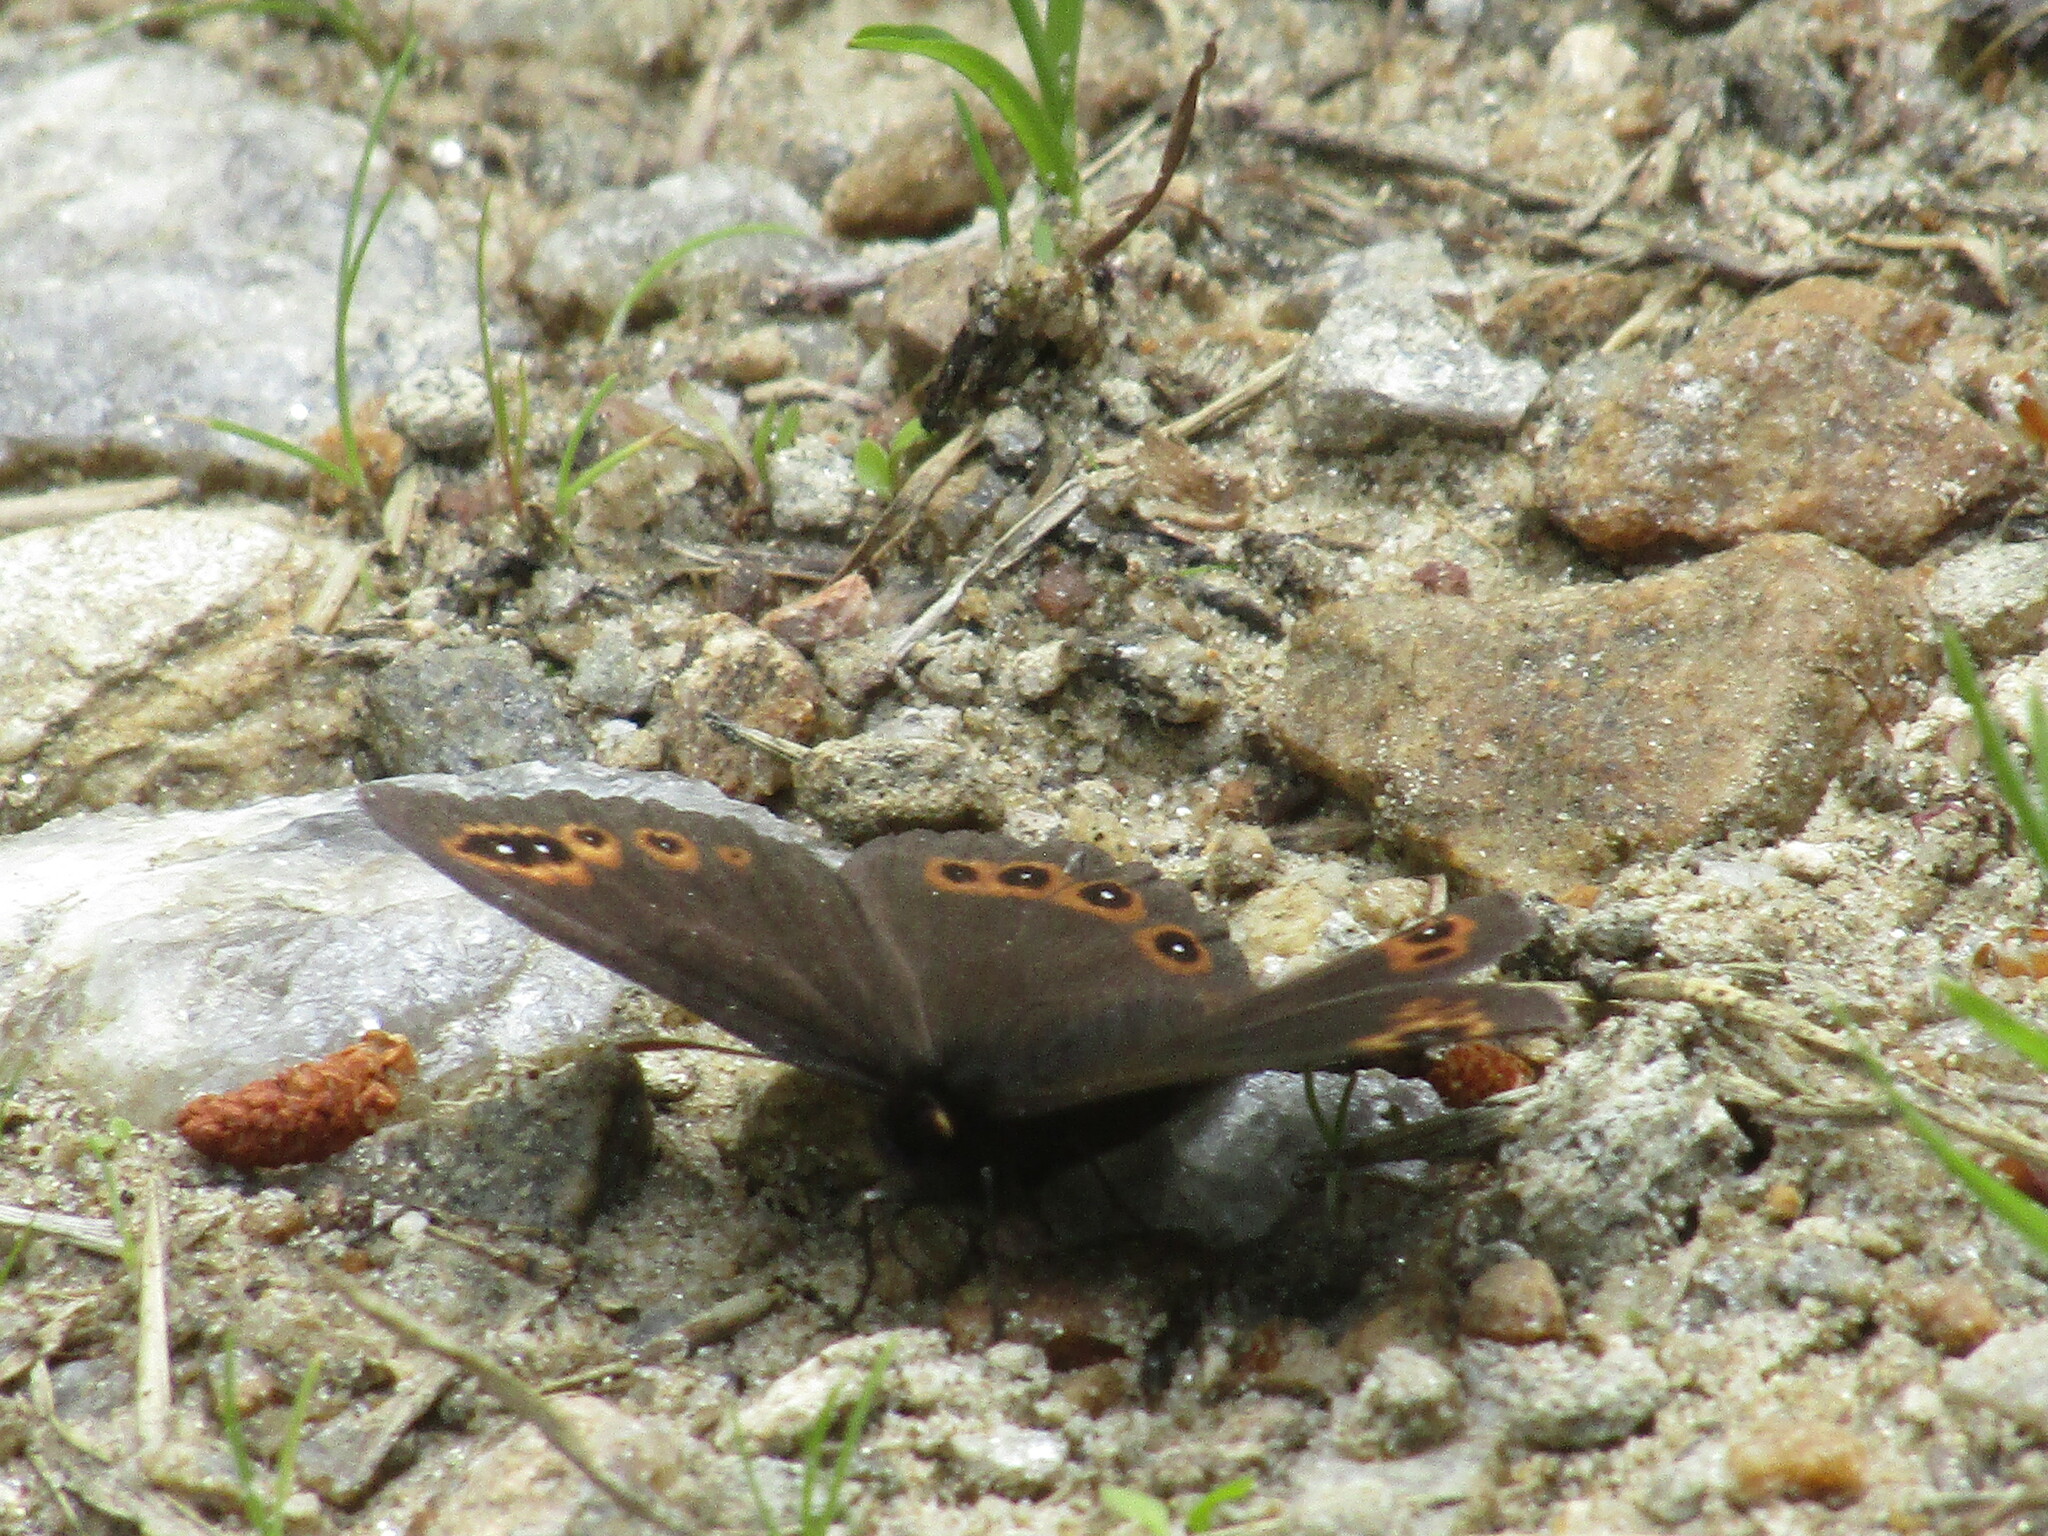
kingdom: Animalia
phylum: Arthropoda
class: Insecta
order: Lepidoptera
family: Nymphalidae
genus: Erebia
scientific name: Erebia medusa
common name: Woodland ringlet
